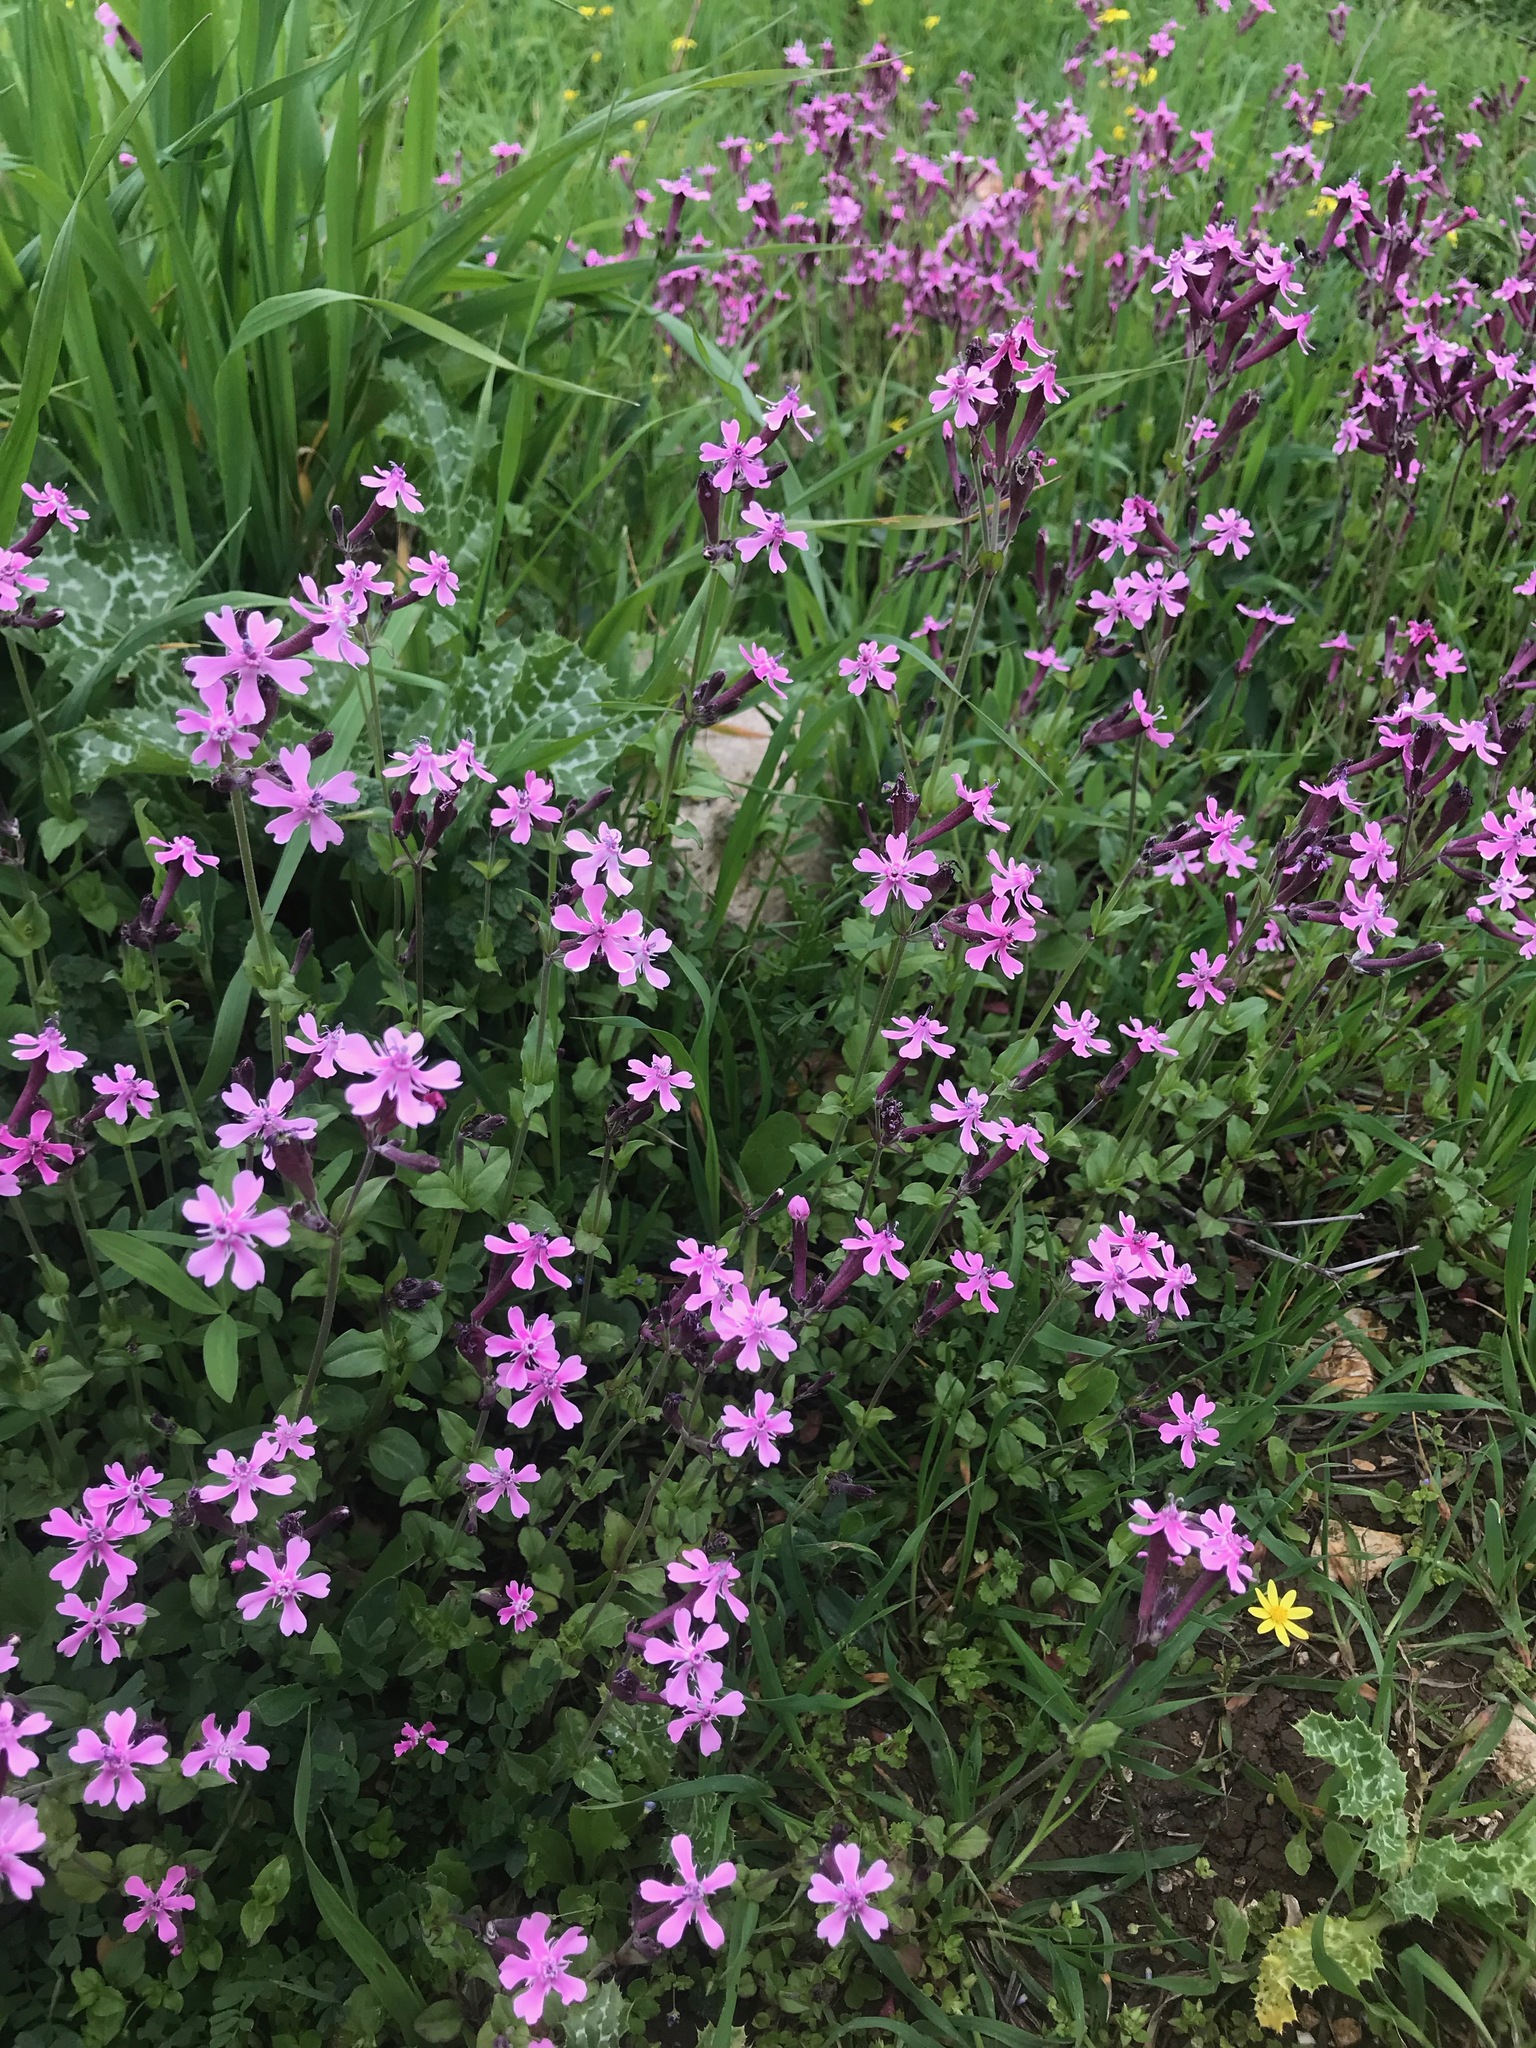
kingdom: Plantae
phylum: Tracheophyta
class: Magnoliopsida
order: Caryophyllales
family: Caryophyllaceae
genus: Silene
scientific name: Silene aegyptiaca
